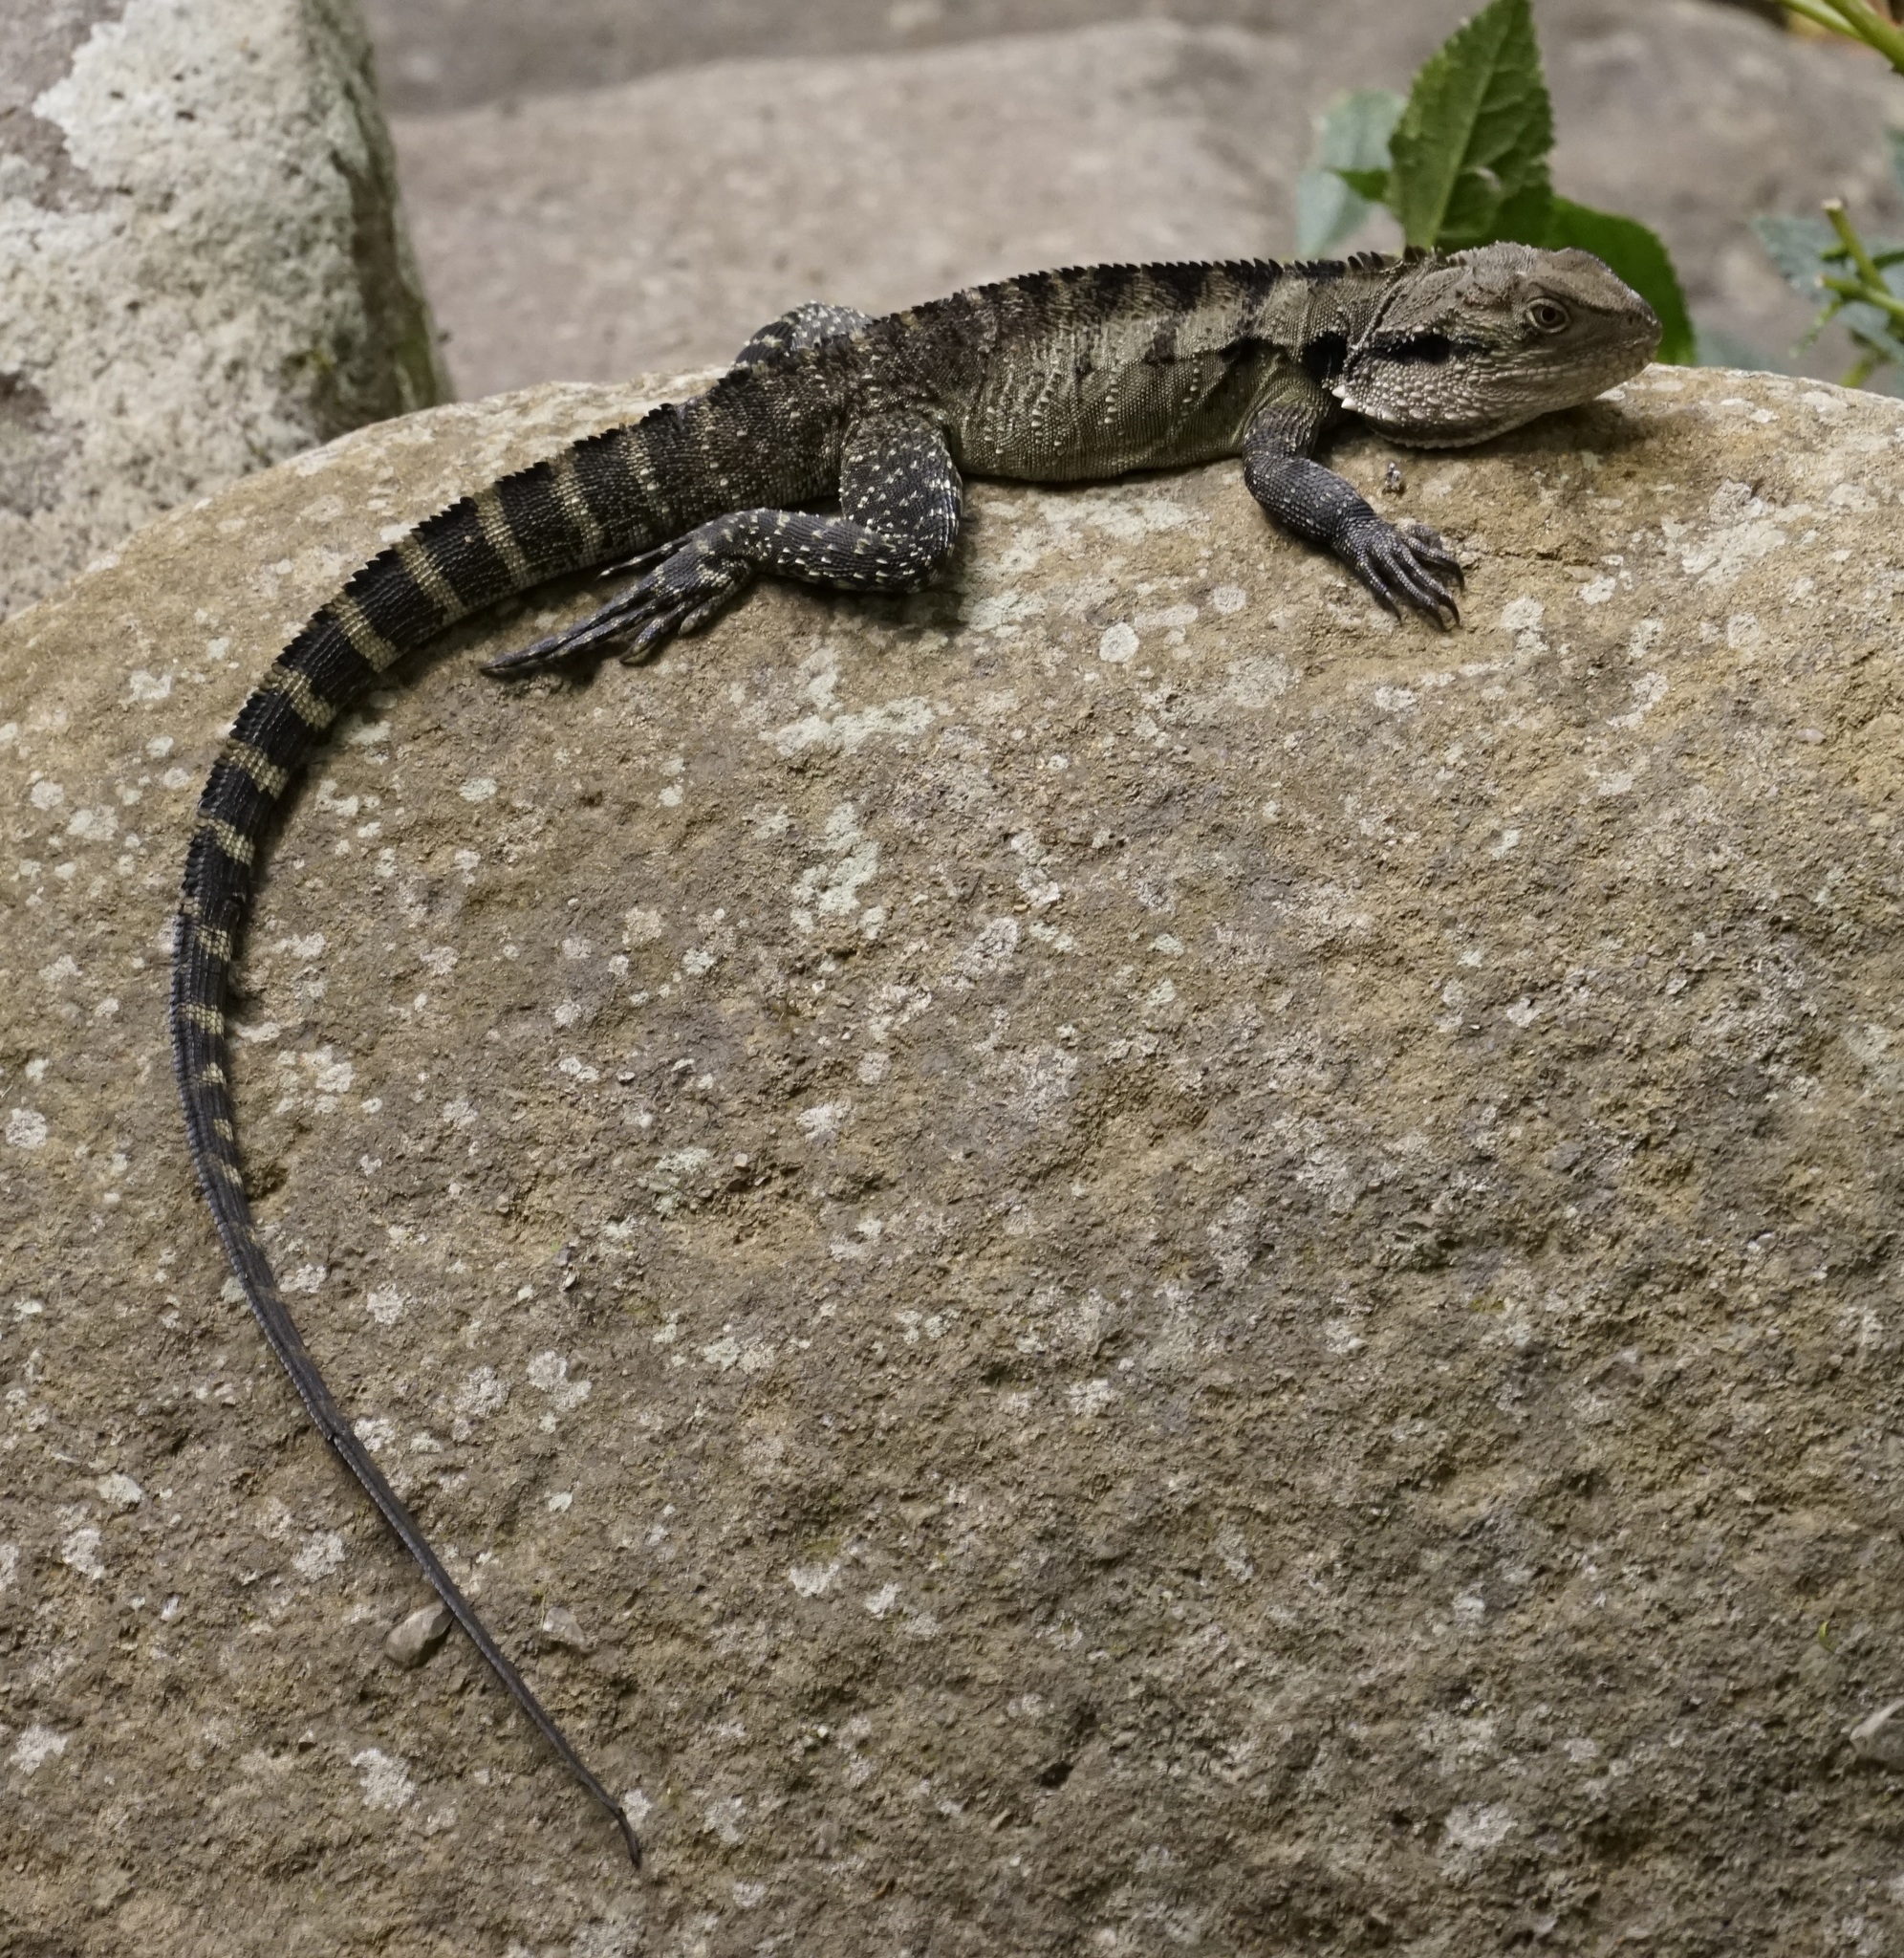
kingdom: Animalia
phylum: Chordata
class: Squamata
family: Agamidae
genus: Intellagama
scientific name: Intellagama lesueurii
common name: Eastern water dragon
